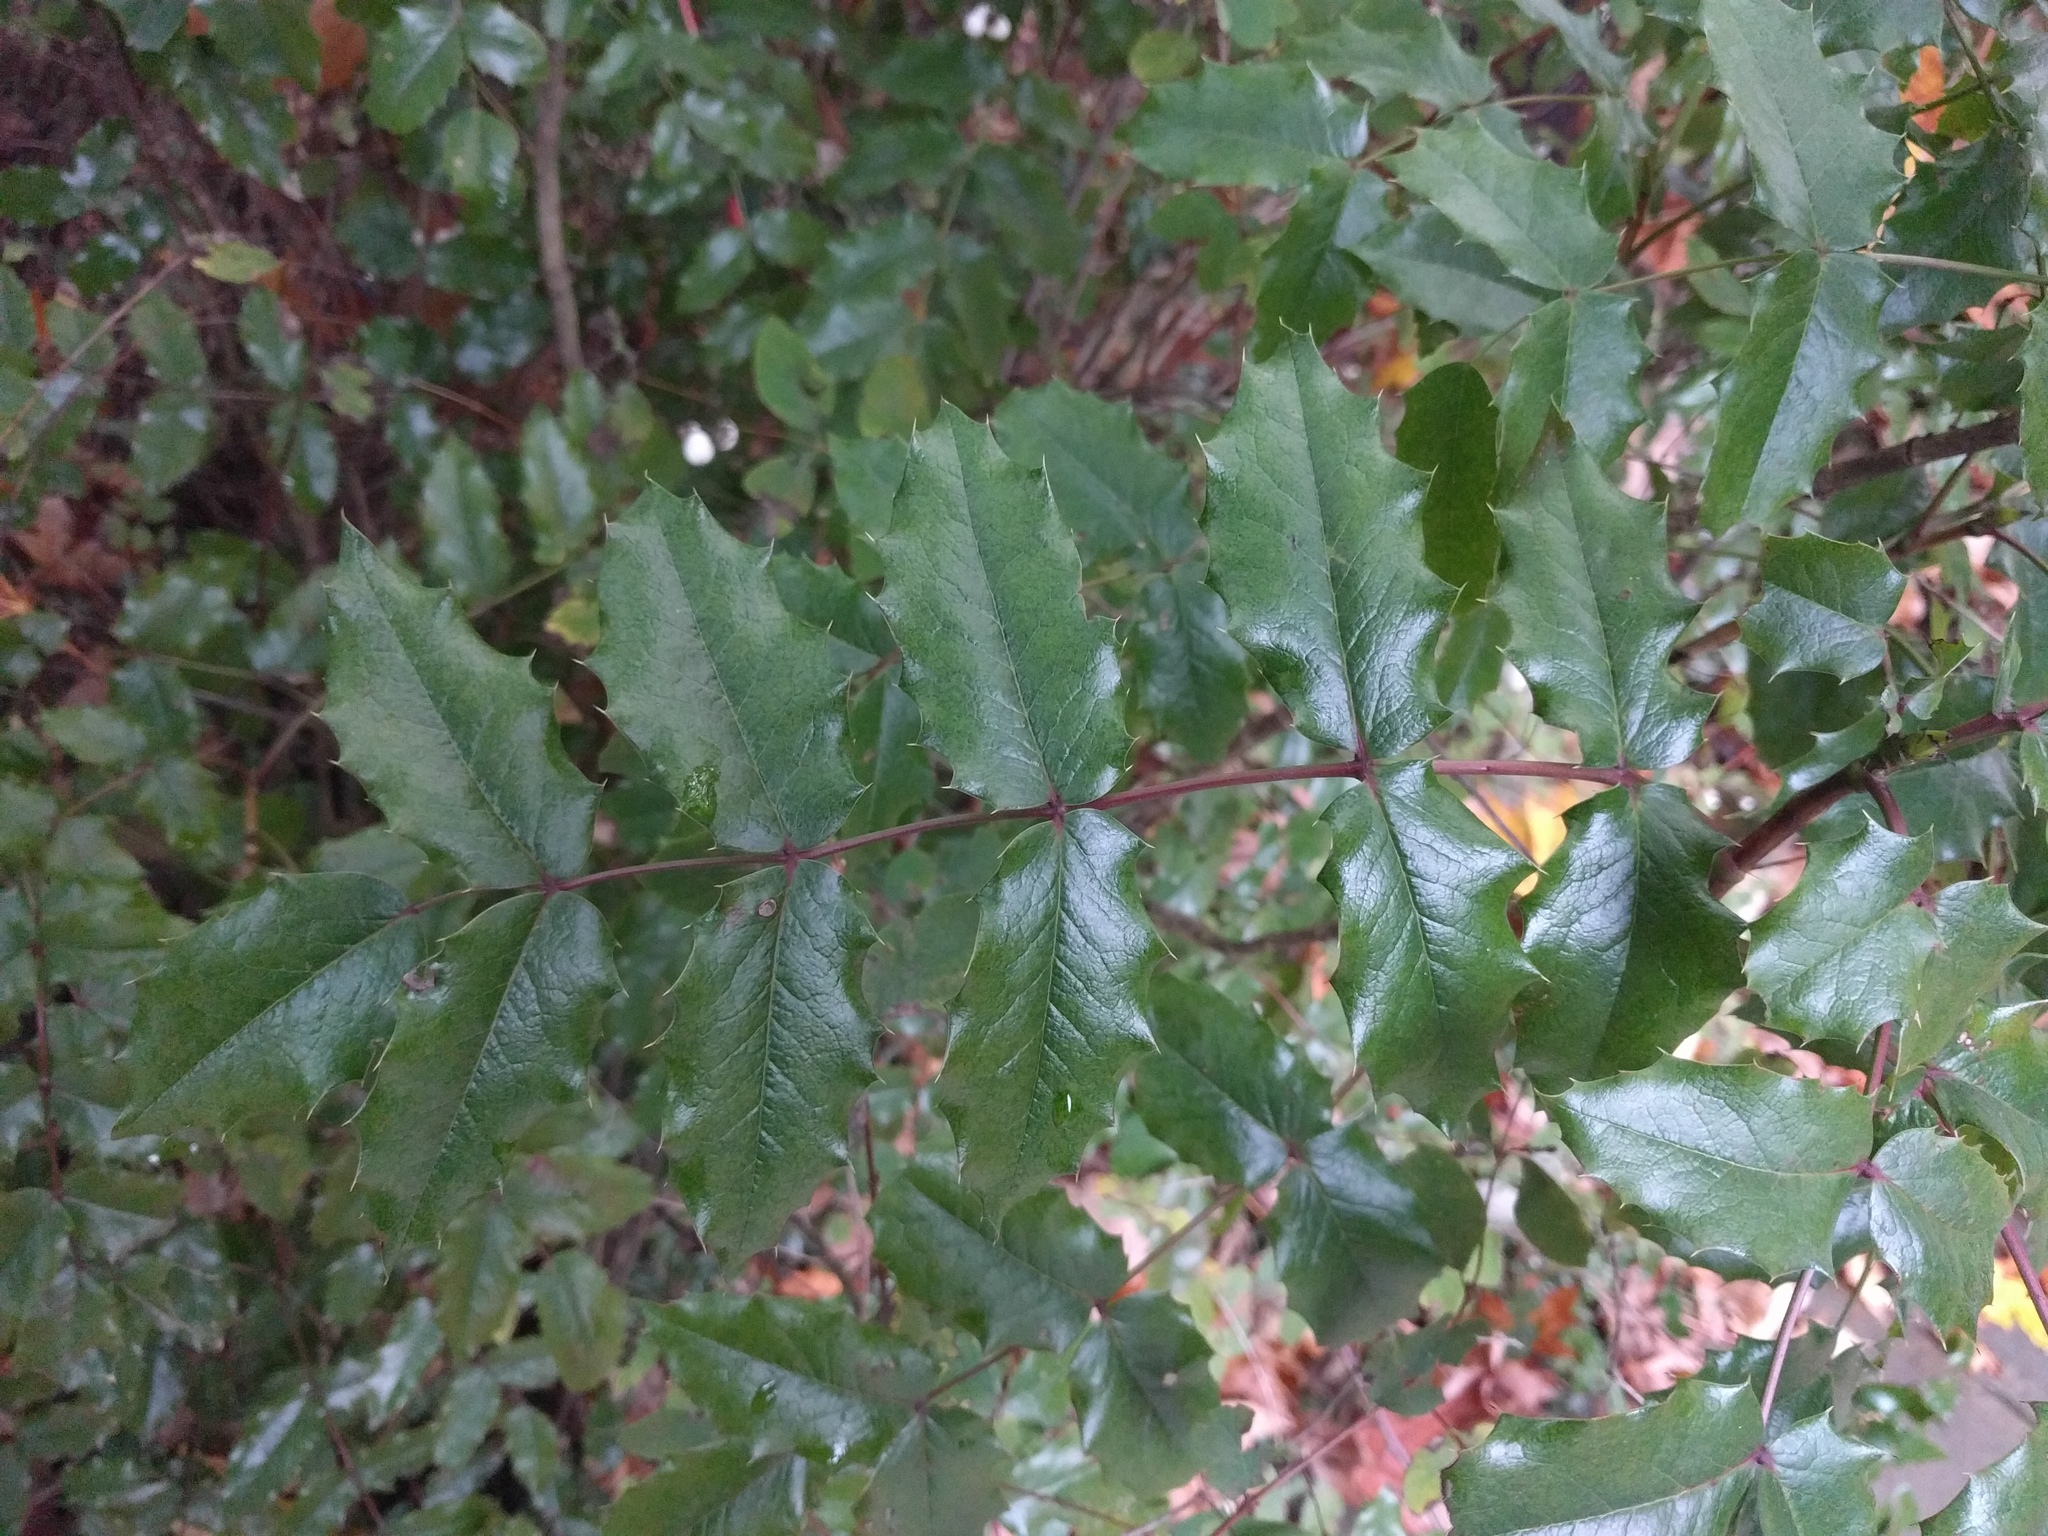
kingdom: Plantae
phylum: Tracheophyta
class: Magnoliopsida
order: Ranunculales
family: Berberidaceae
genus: Mahonia
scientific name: Mahonia aquifolium
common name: Oregon-grape
